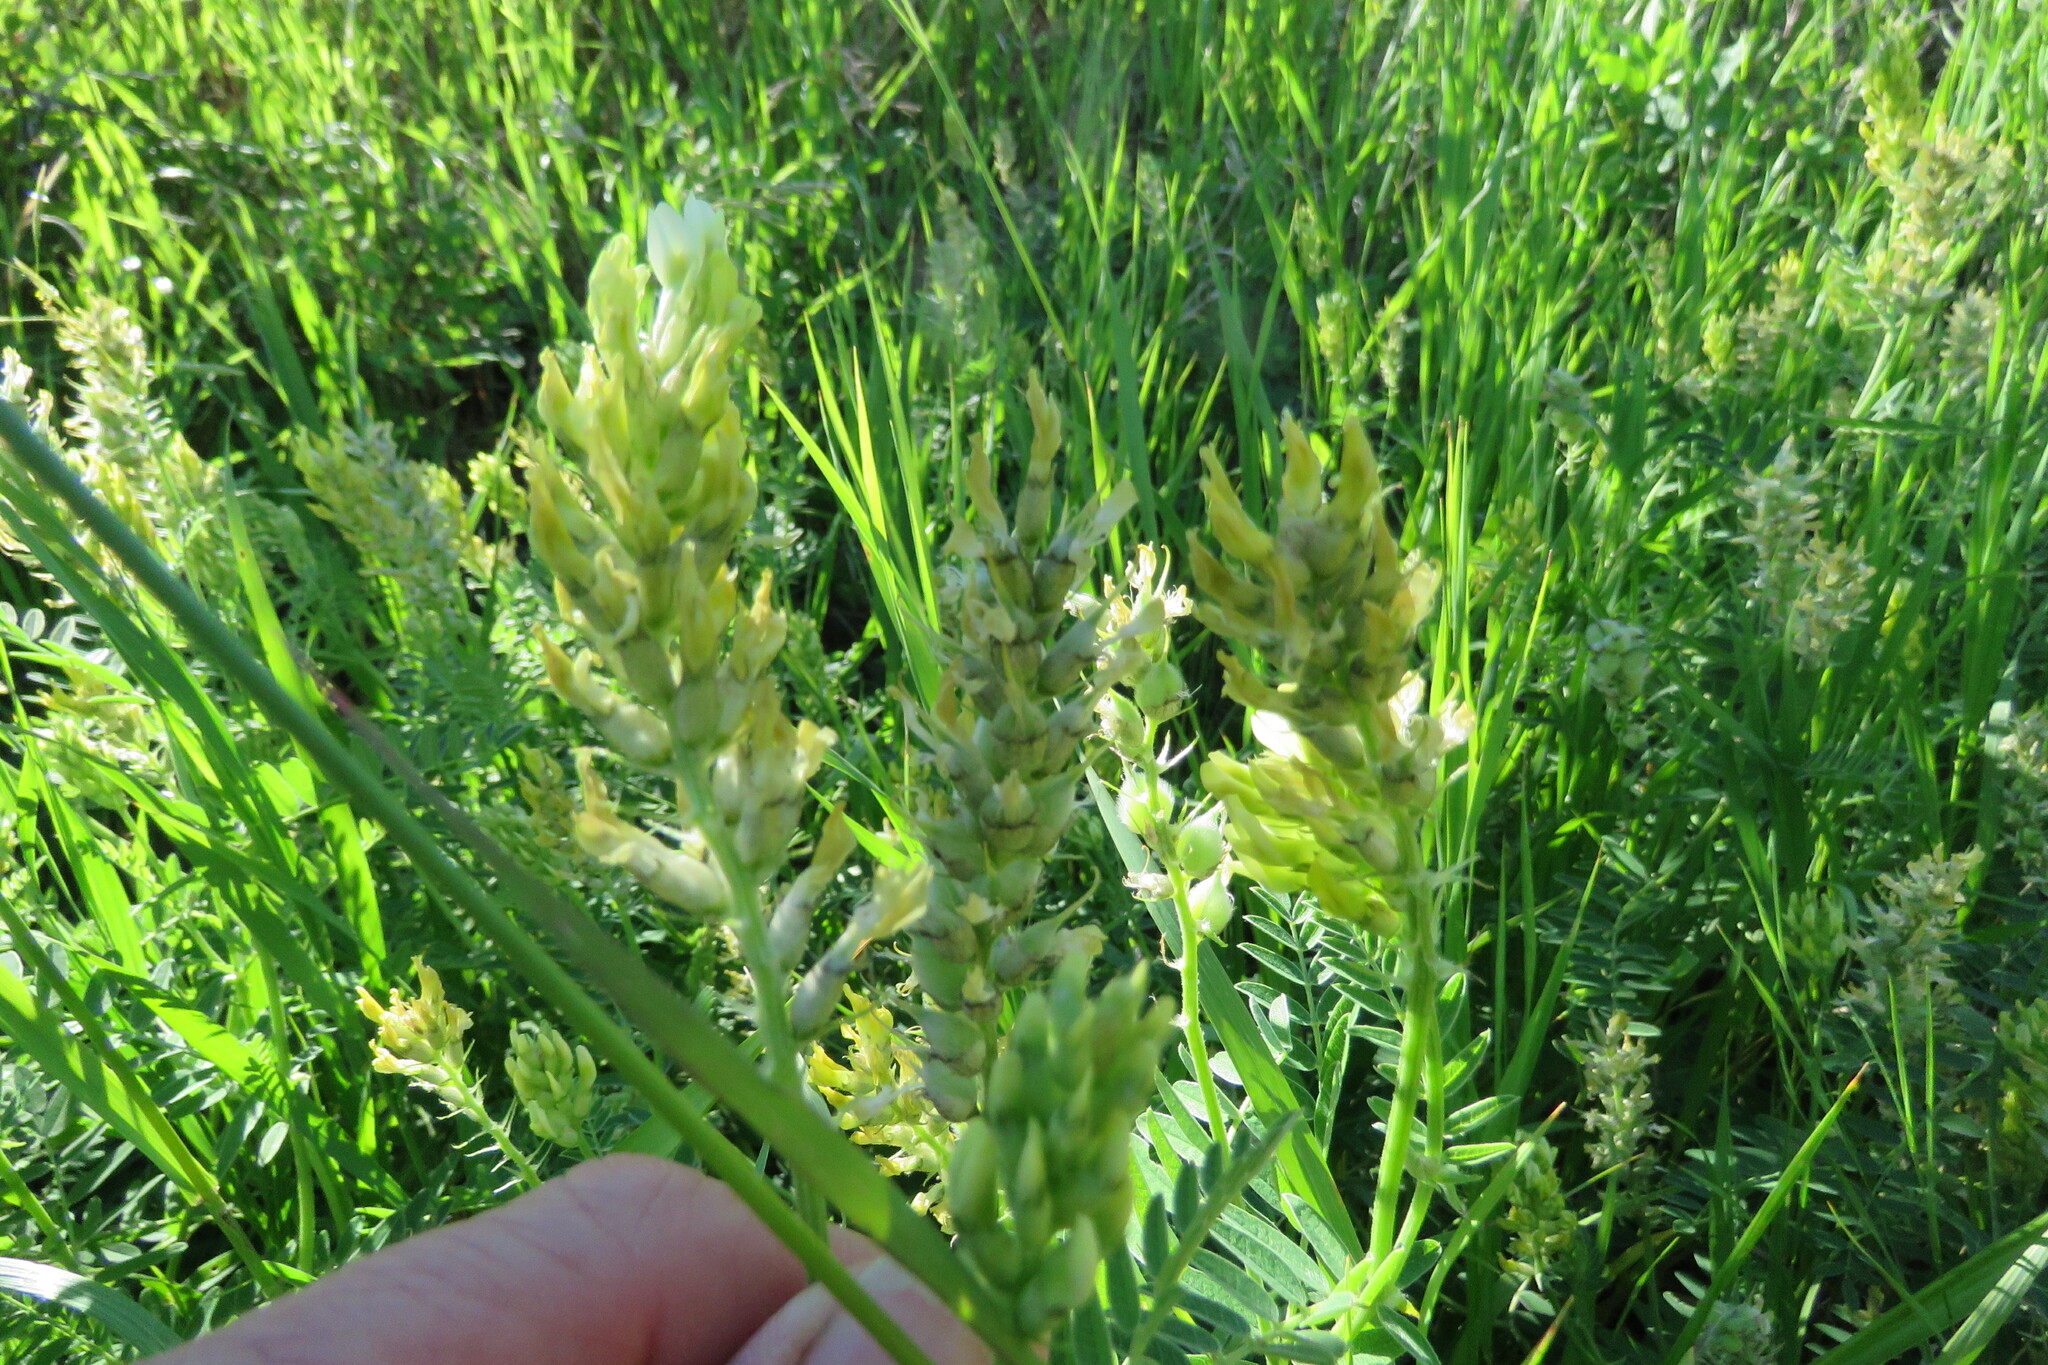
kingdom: Plantae
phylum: Tracheophyta
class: Magnoliopsida
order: Fabales
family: Fabaceae
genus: Astragalus
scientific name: Astragalus cicer
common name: Chick-pea milk-vetch
